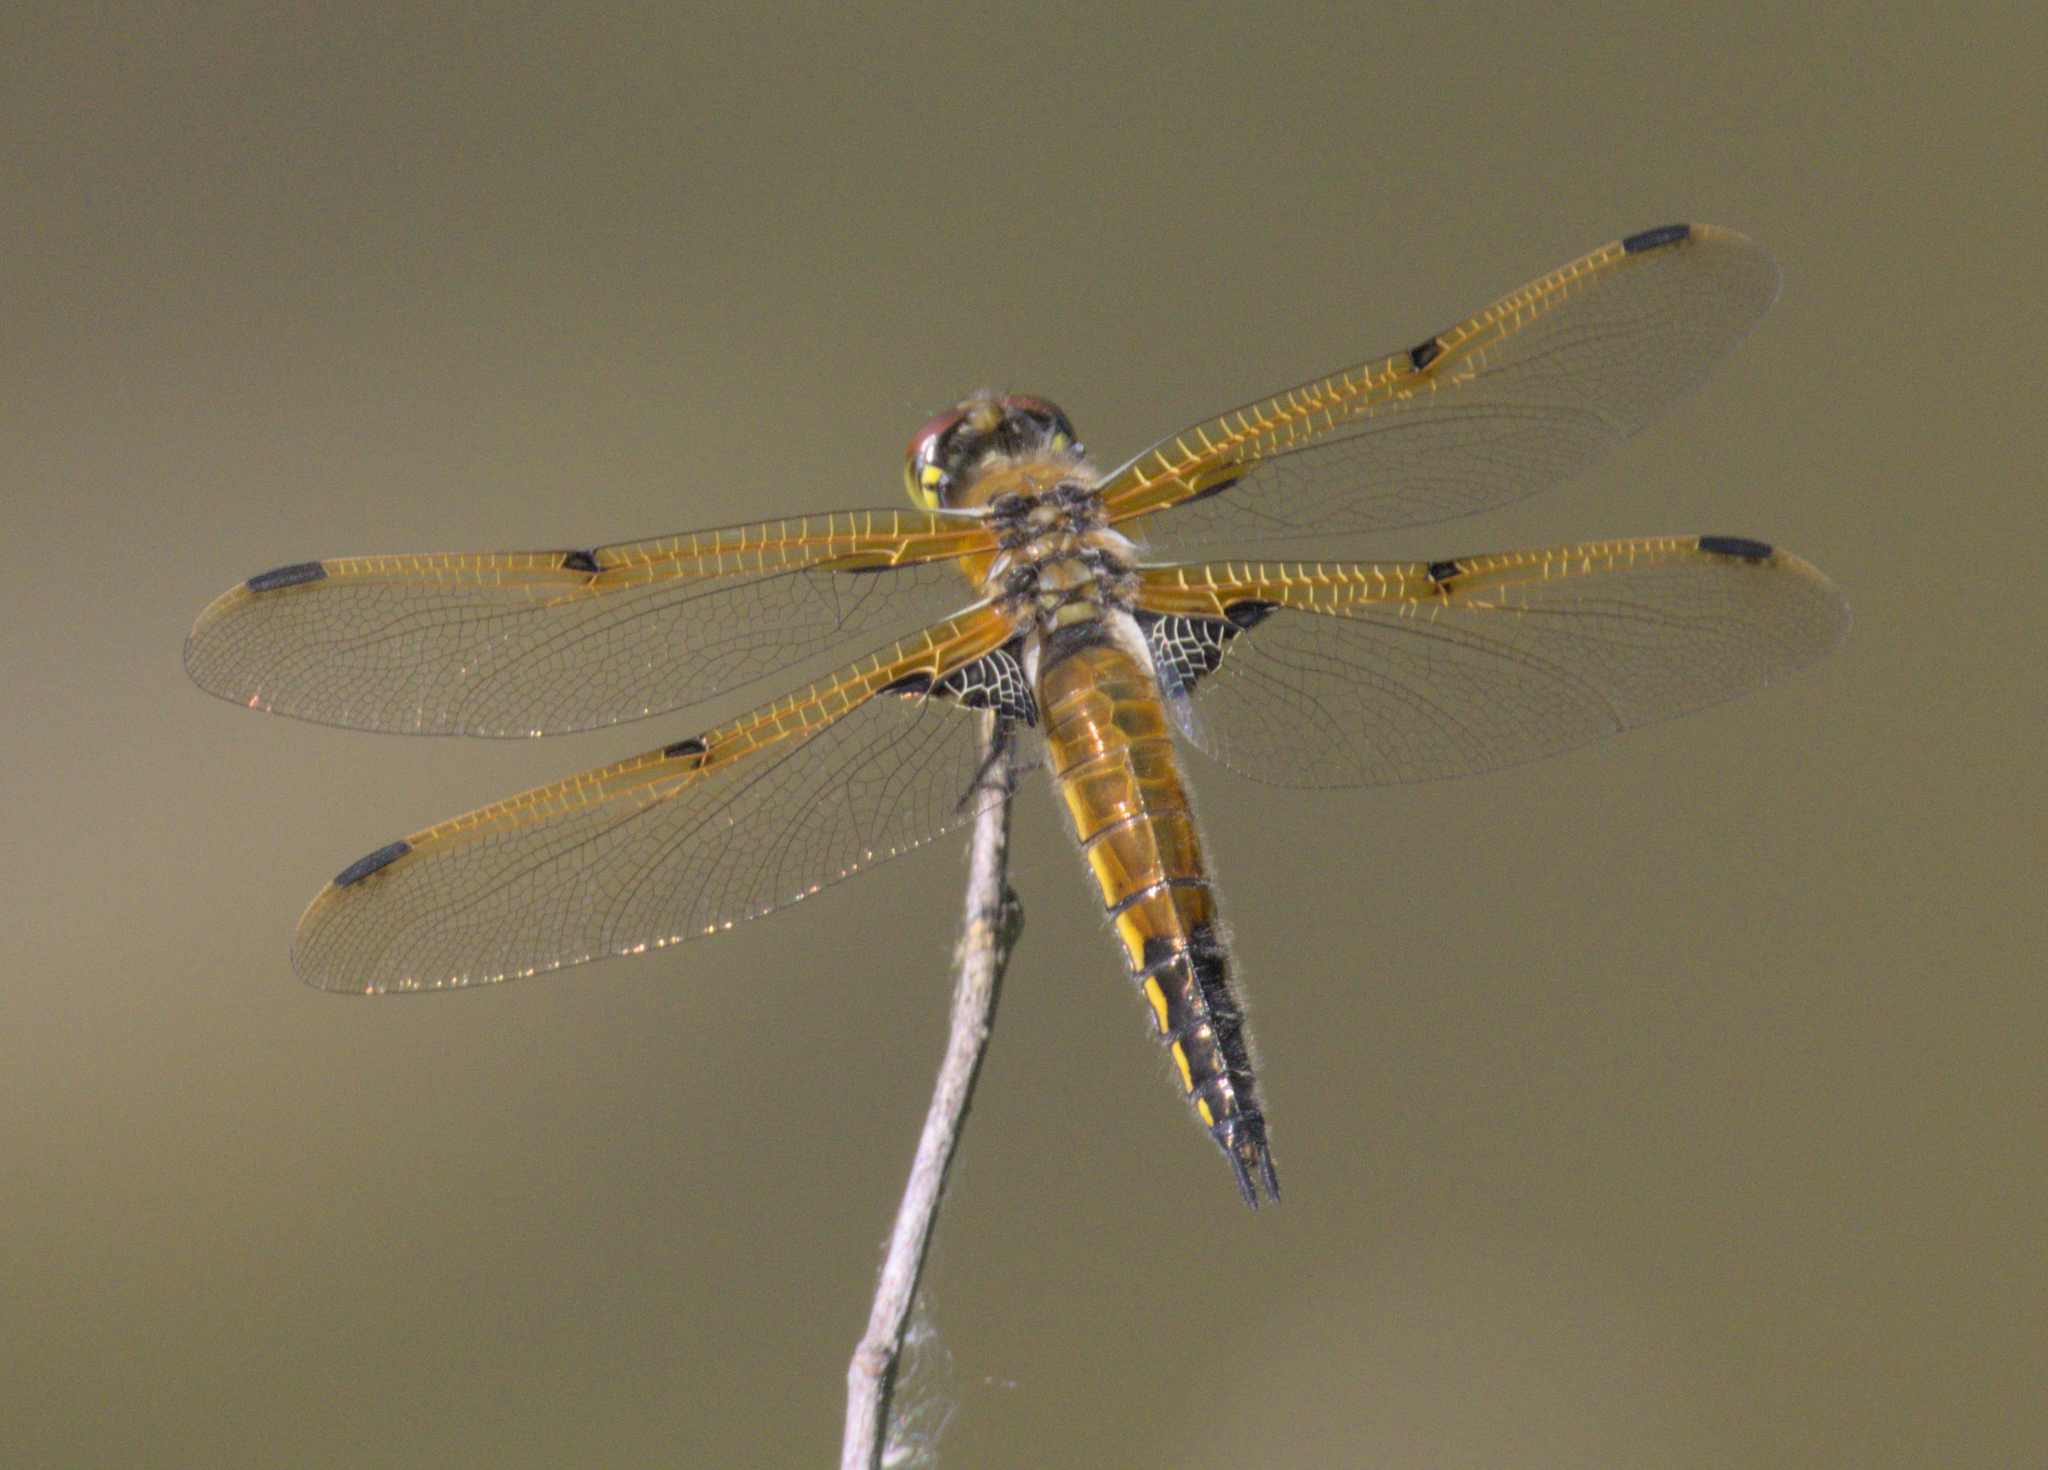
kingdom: Animalia
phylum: Arthropoda
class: Insecta
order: Odonata
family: Libellulidae
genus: Libellula
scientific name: Libellula quadrimaculata
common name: Four-spotted chaser
